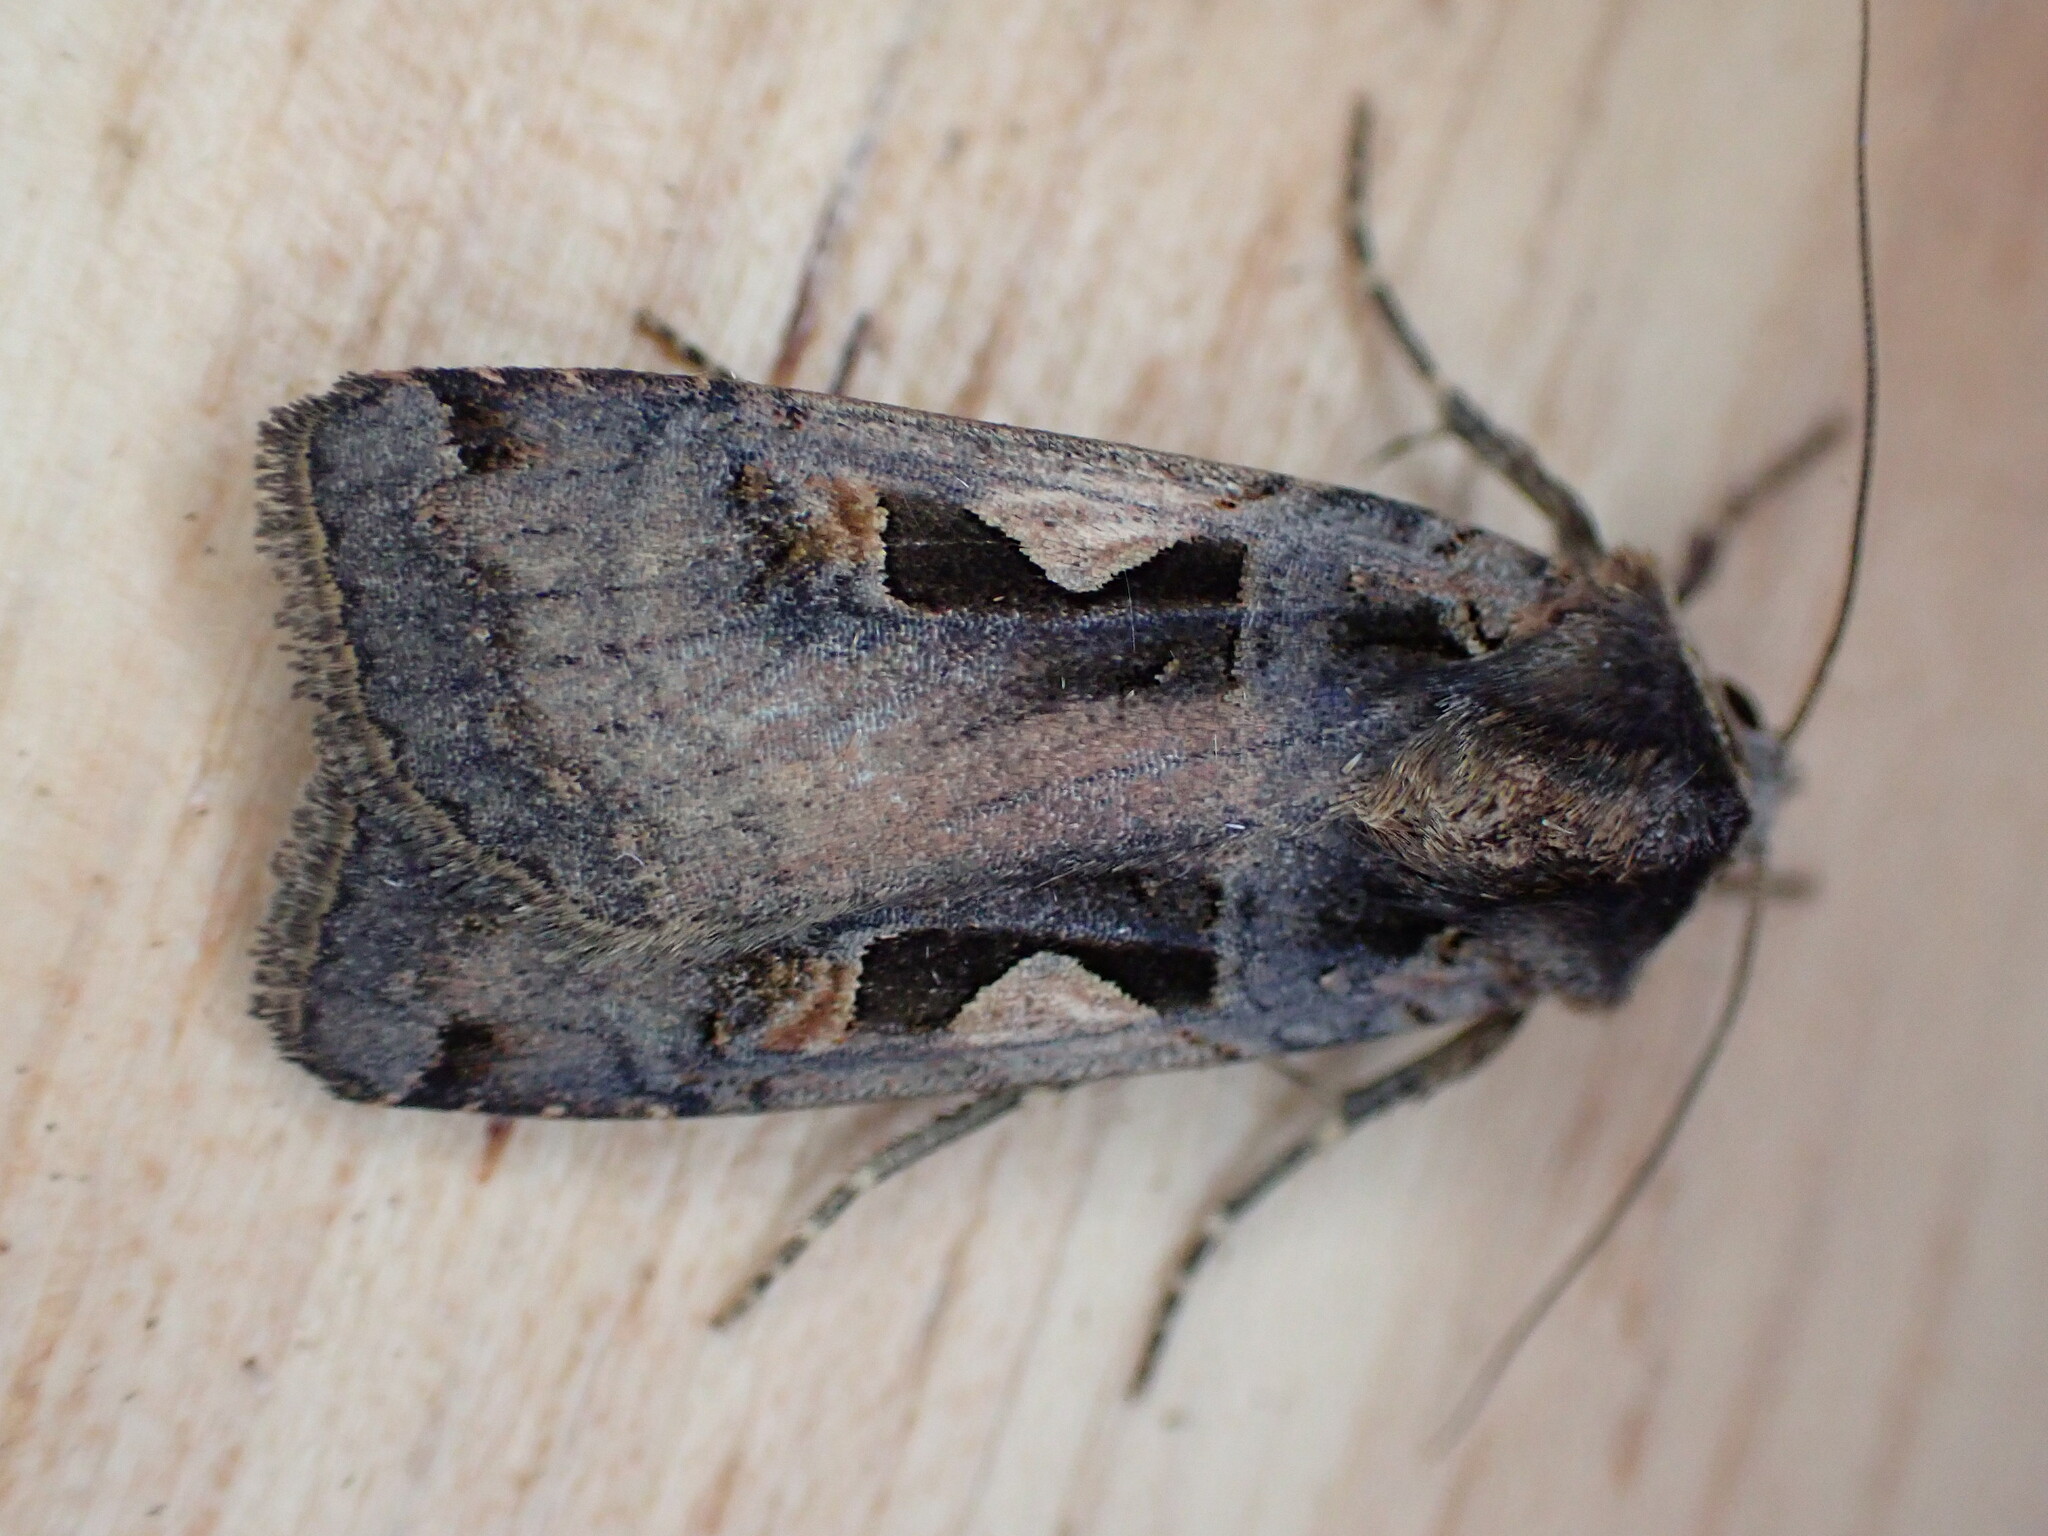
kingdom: Animalia
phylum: Arthropoda
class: Insecta
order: Lepidoptera
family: Noctuidae
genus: Xestia
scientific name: Xestia c-nigrum
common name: Setaceous hebrew character
